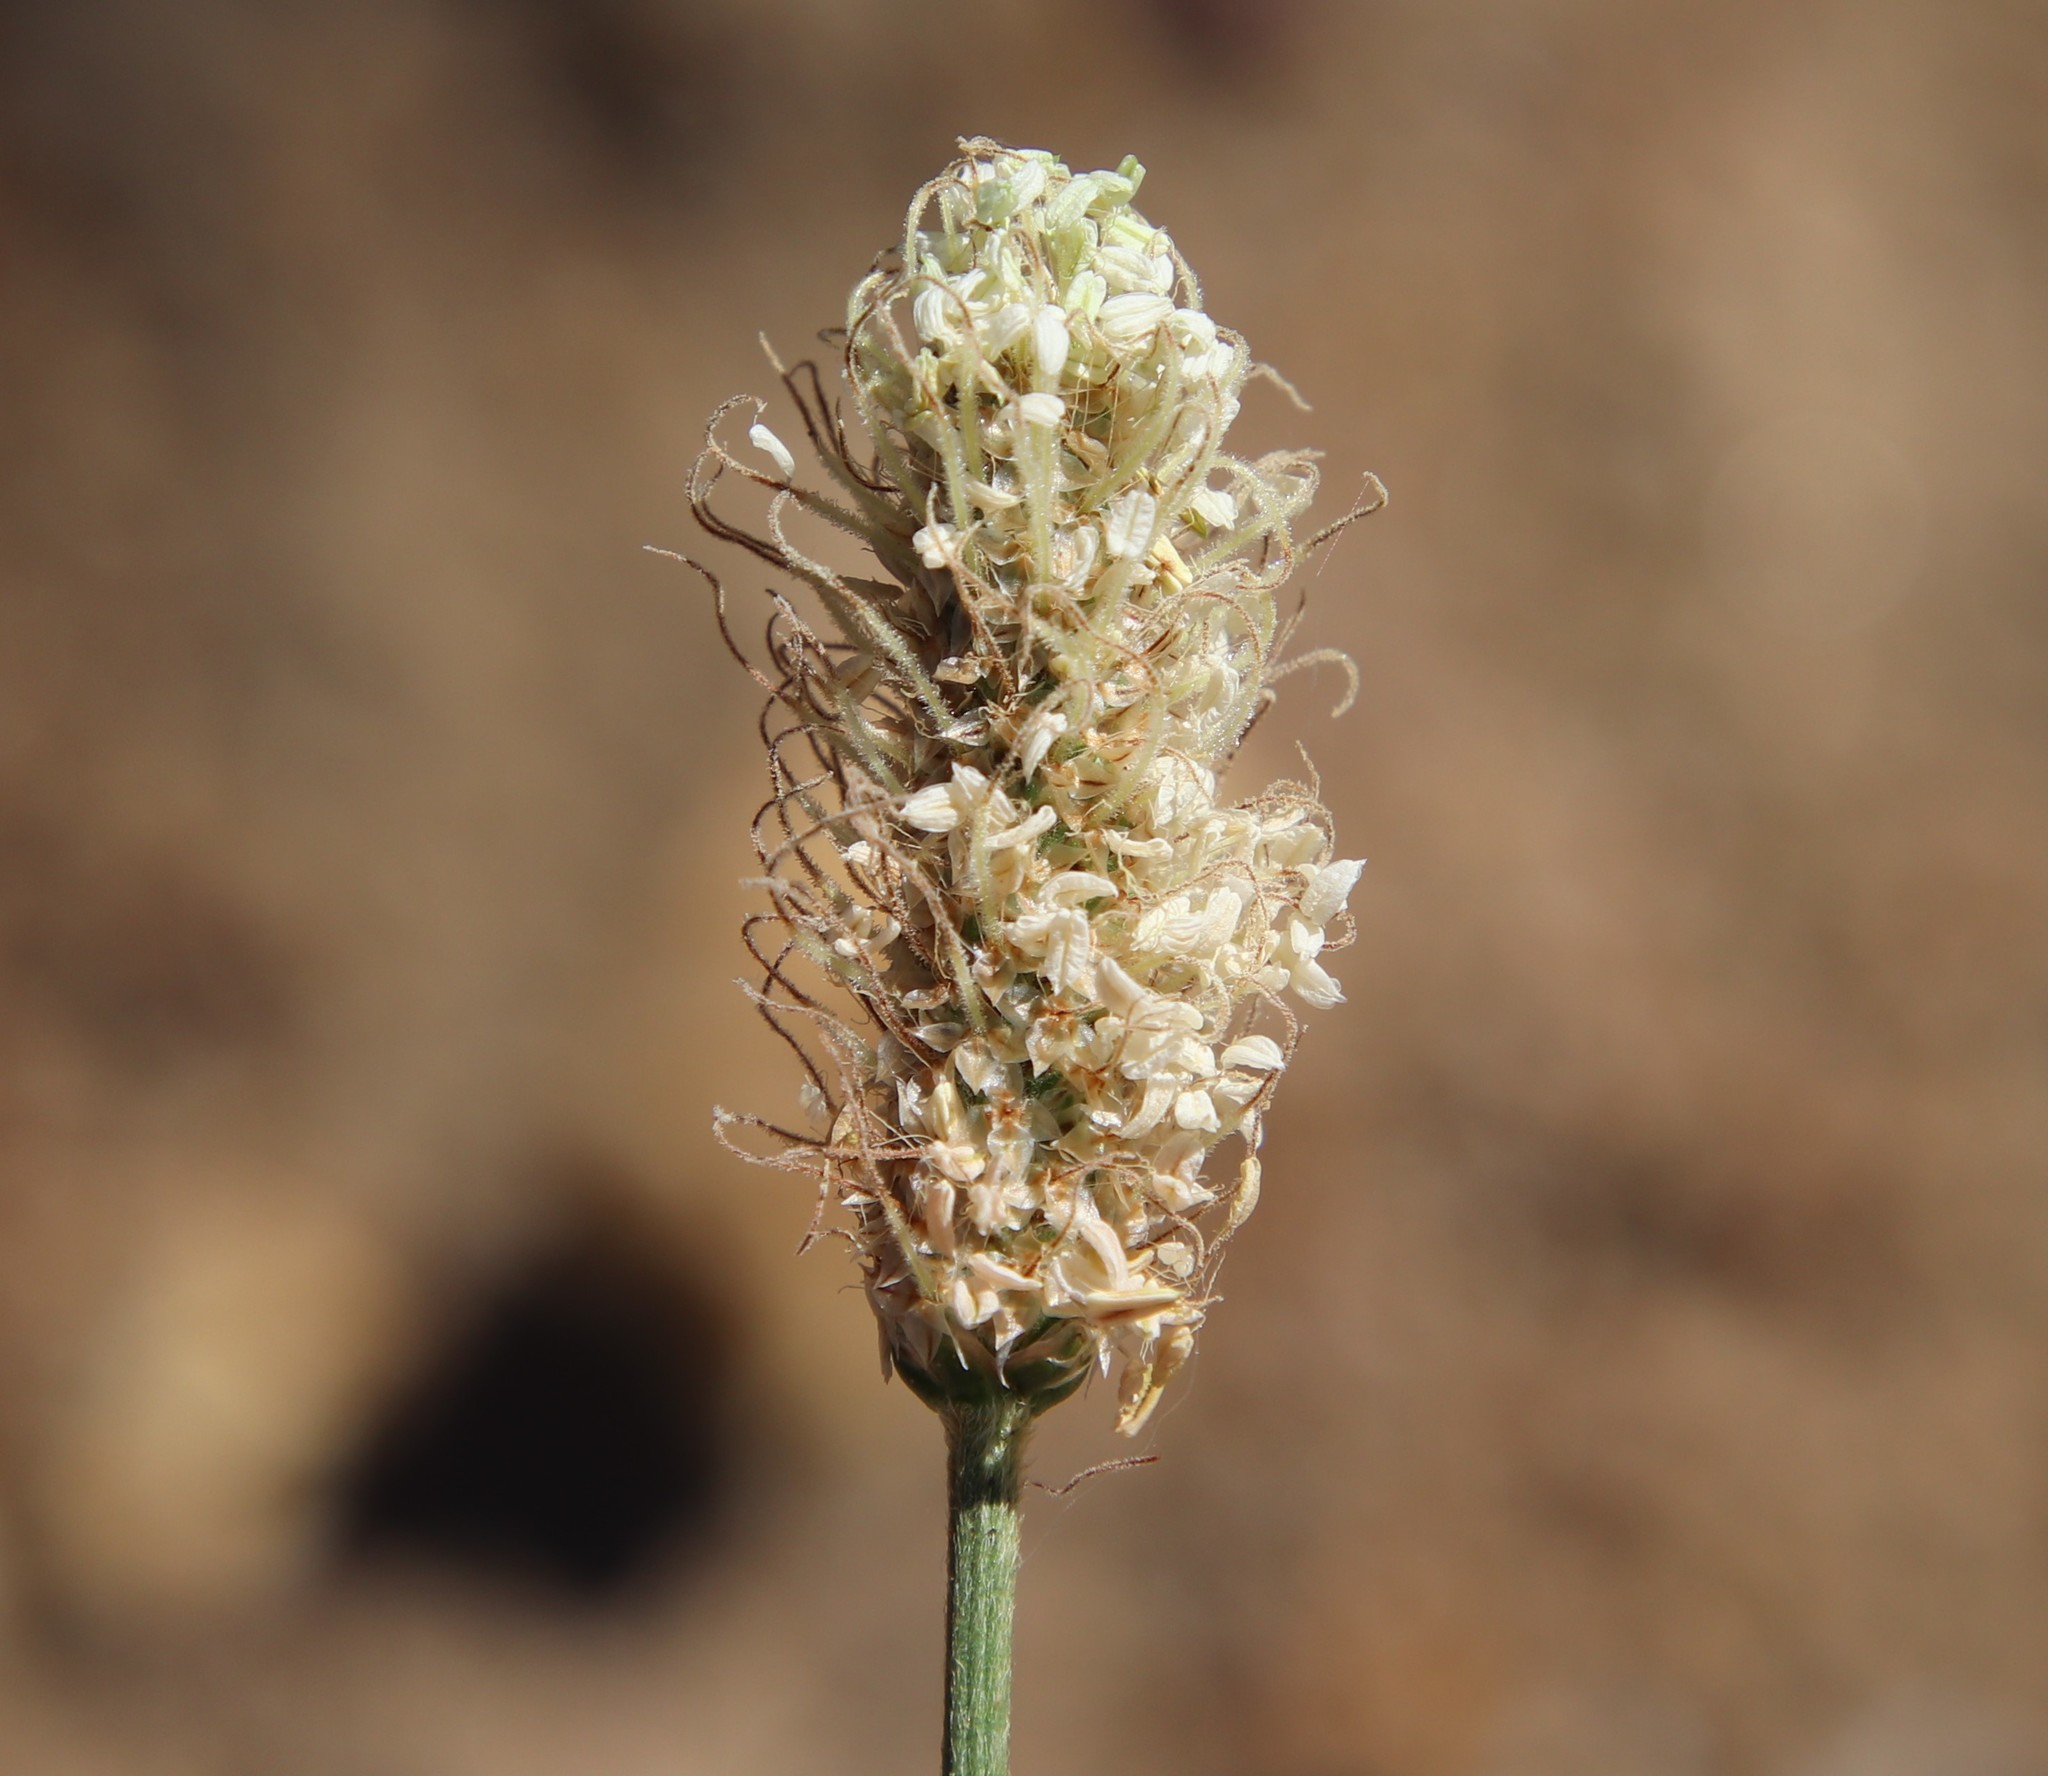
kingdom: Plantae
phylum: Tracheophyta
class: Magnoliopsida
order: Lamiales
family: Plantaginaceae
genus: Plantago
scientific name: Plantago lanceolata
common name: Ribwort plantain
